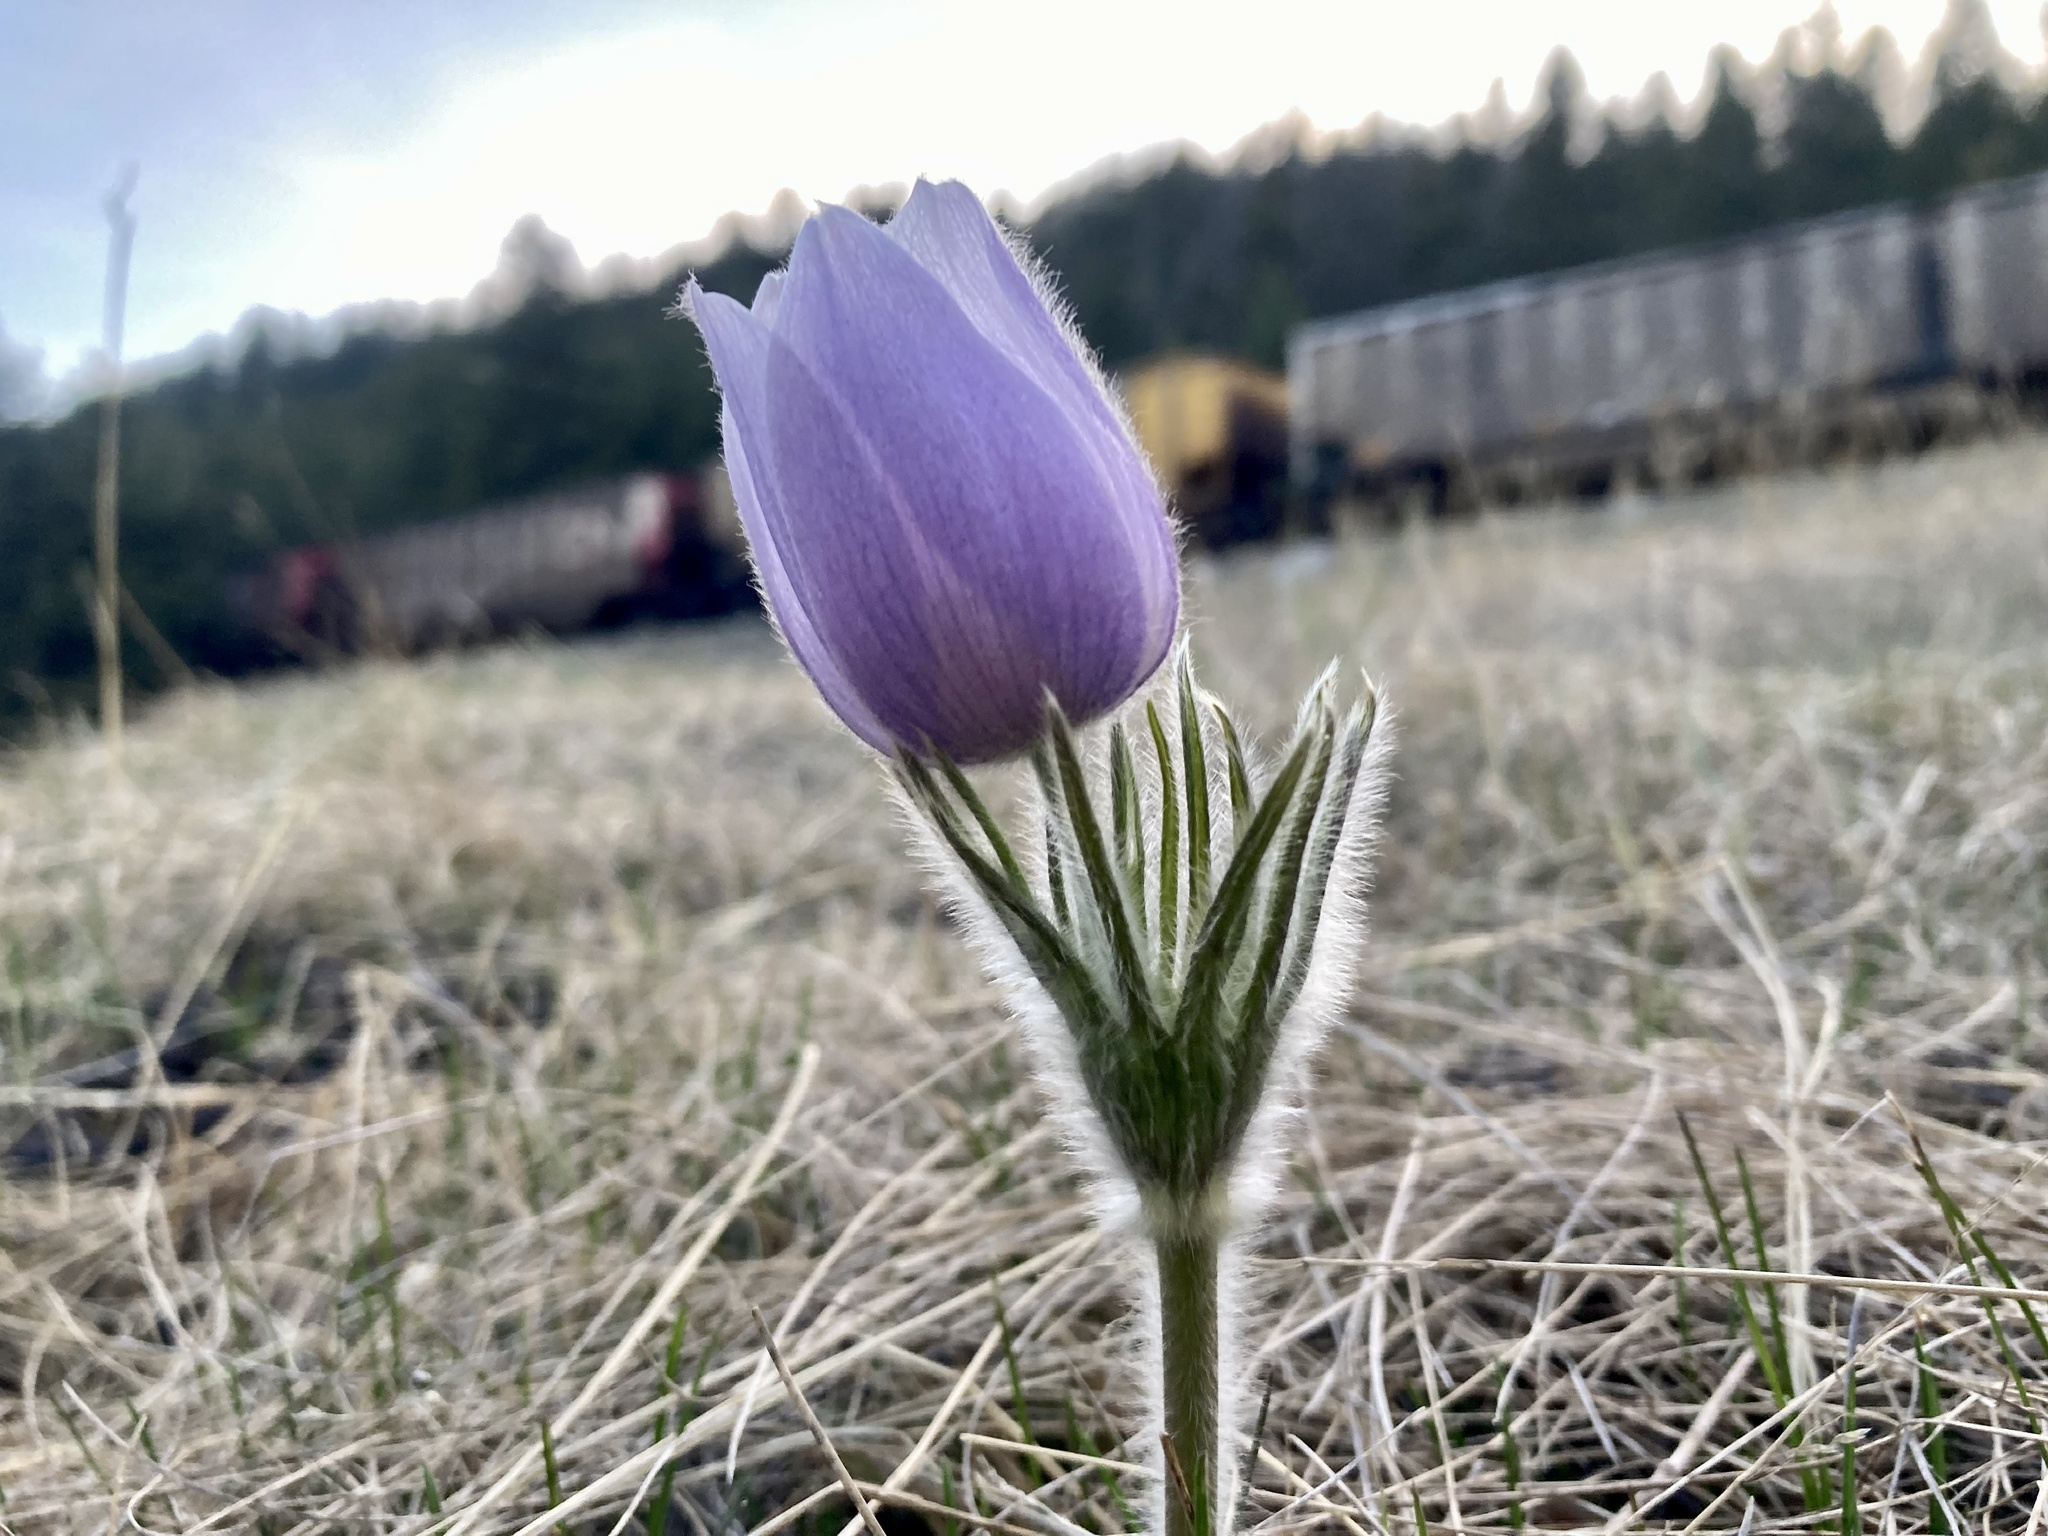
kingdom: Plantae
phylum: Tracheophyta
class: Magnoliopsida
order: Ranunculales
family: Ranunculaceae
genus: Pulsatilla
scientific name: Pulsatilla nuttalliana
